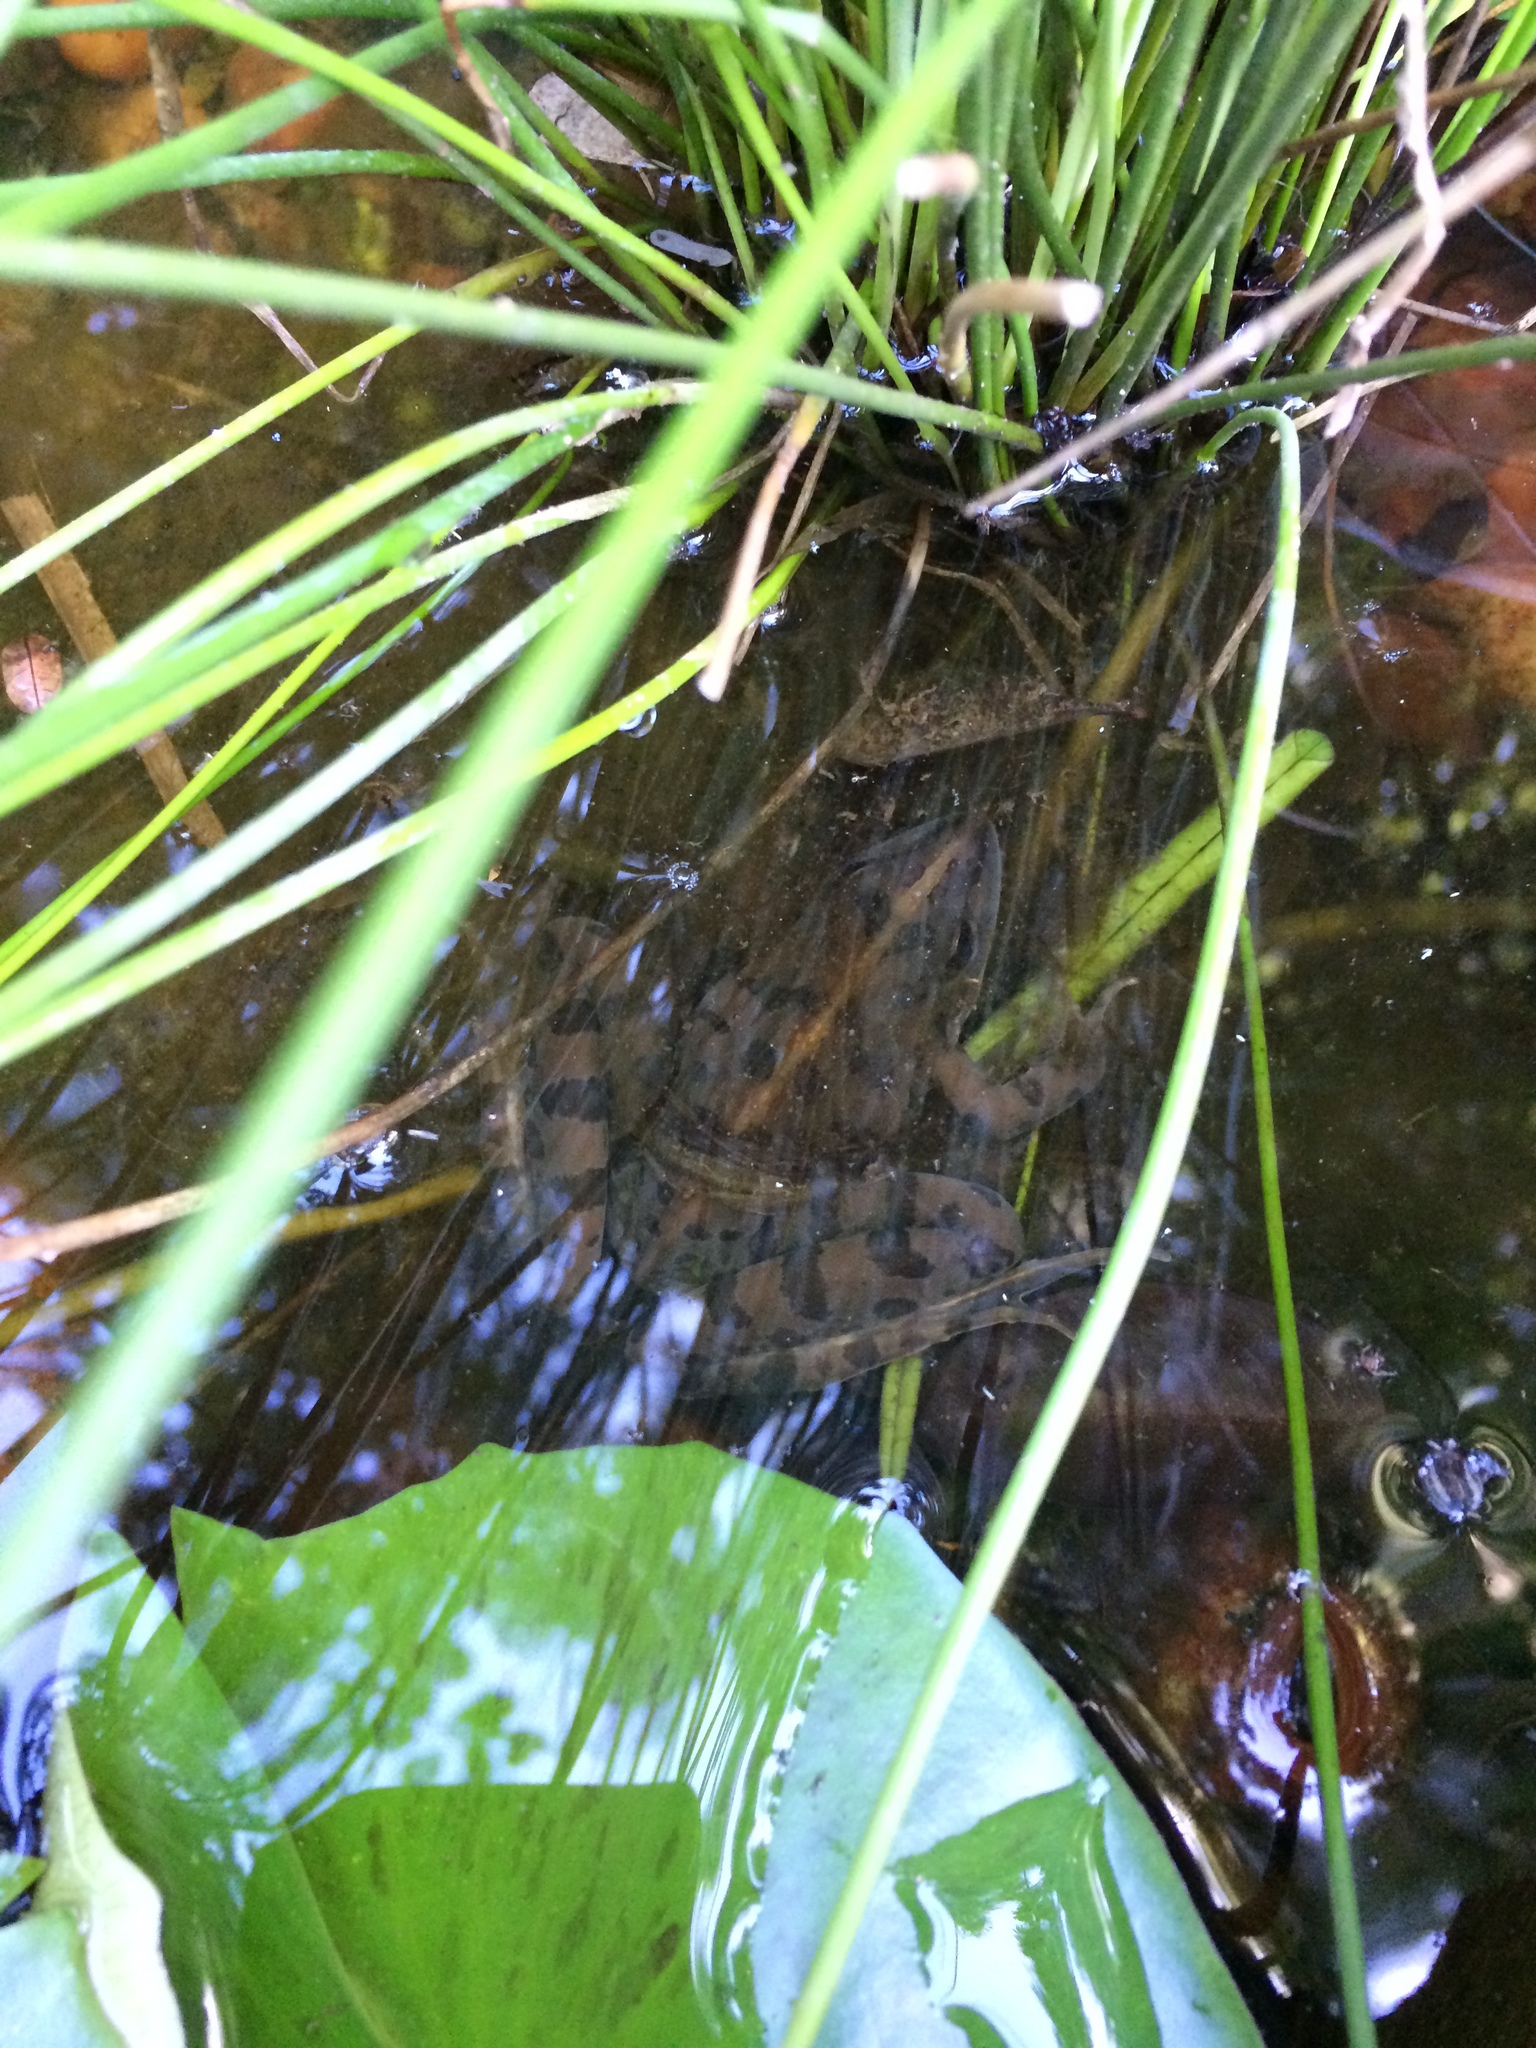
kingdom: Animalia
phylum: Chordata
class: Amphibia
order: Anura
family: Pyxicephalidae
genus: Amietia
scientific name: Amietia delalandii
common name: Delalande's river frog
